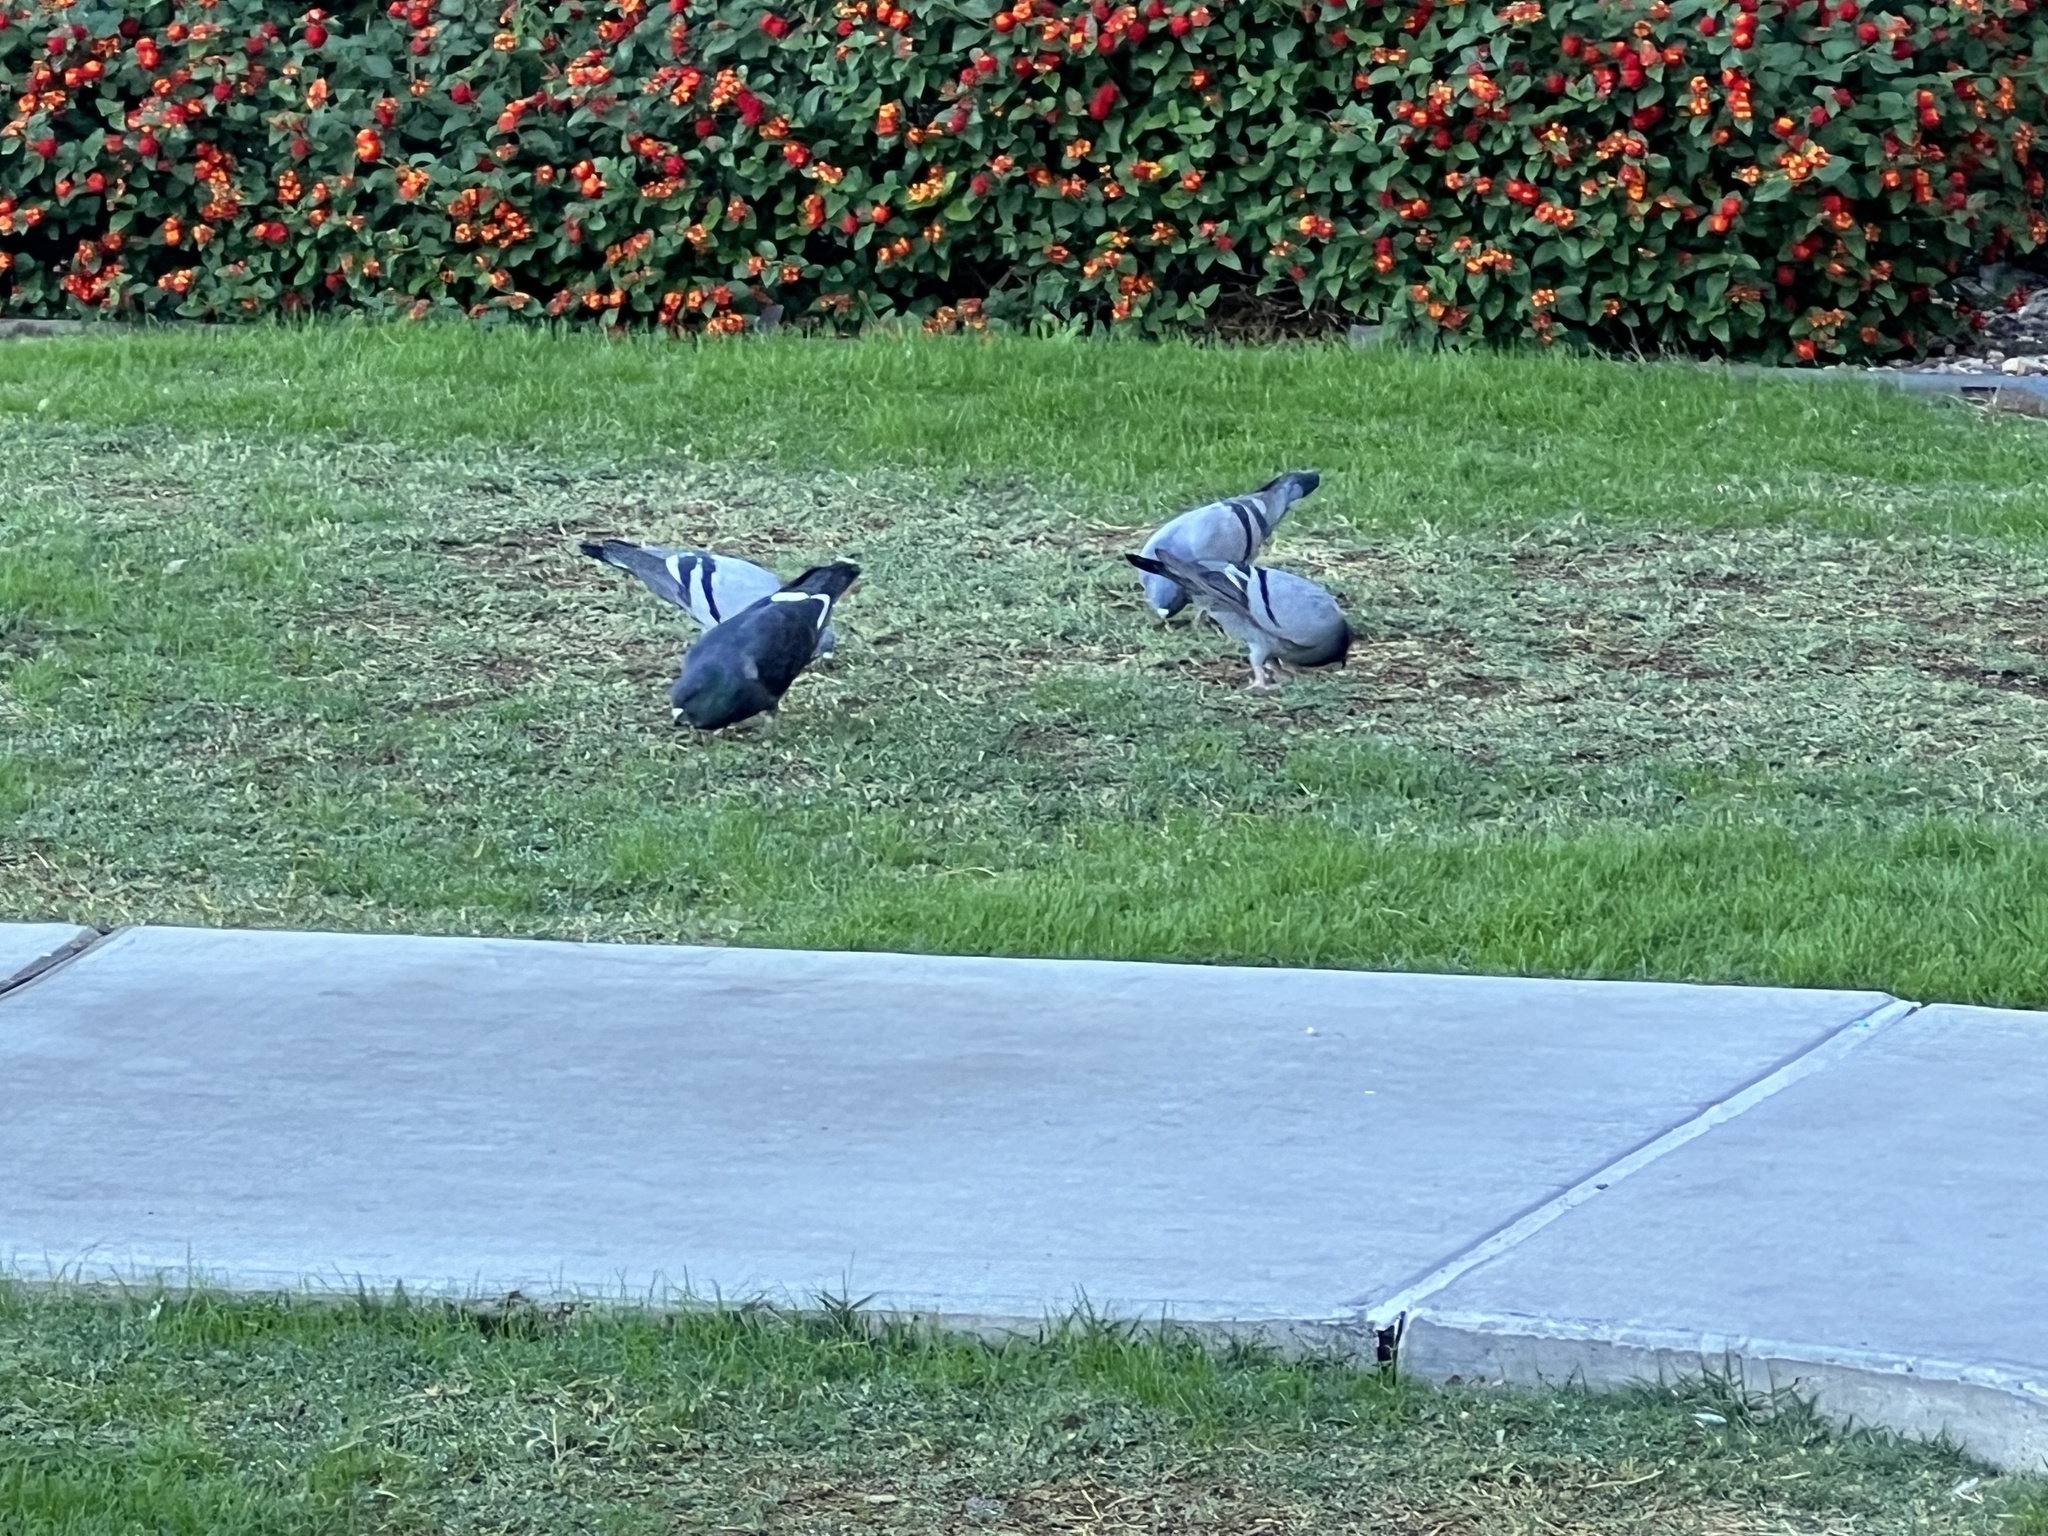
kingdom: Animalia
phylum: Chordata
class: Aves
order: Columbiformes
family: Columbidae
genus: Columba
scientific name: Columba livia
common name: Rock pigeon
